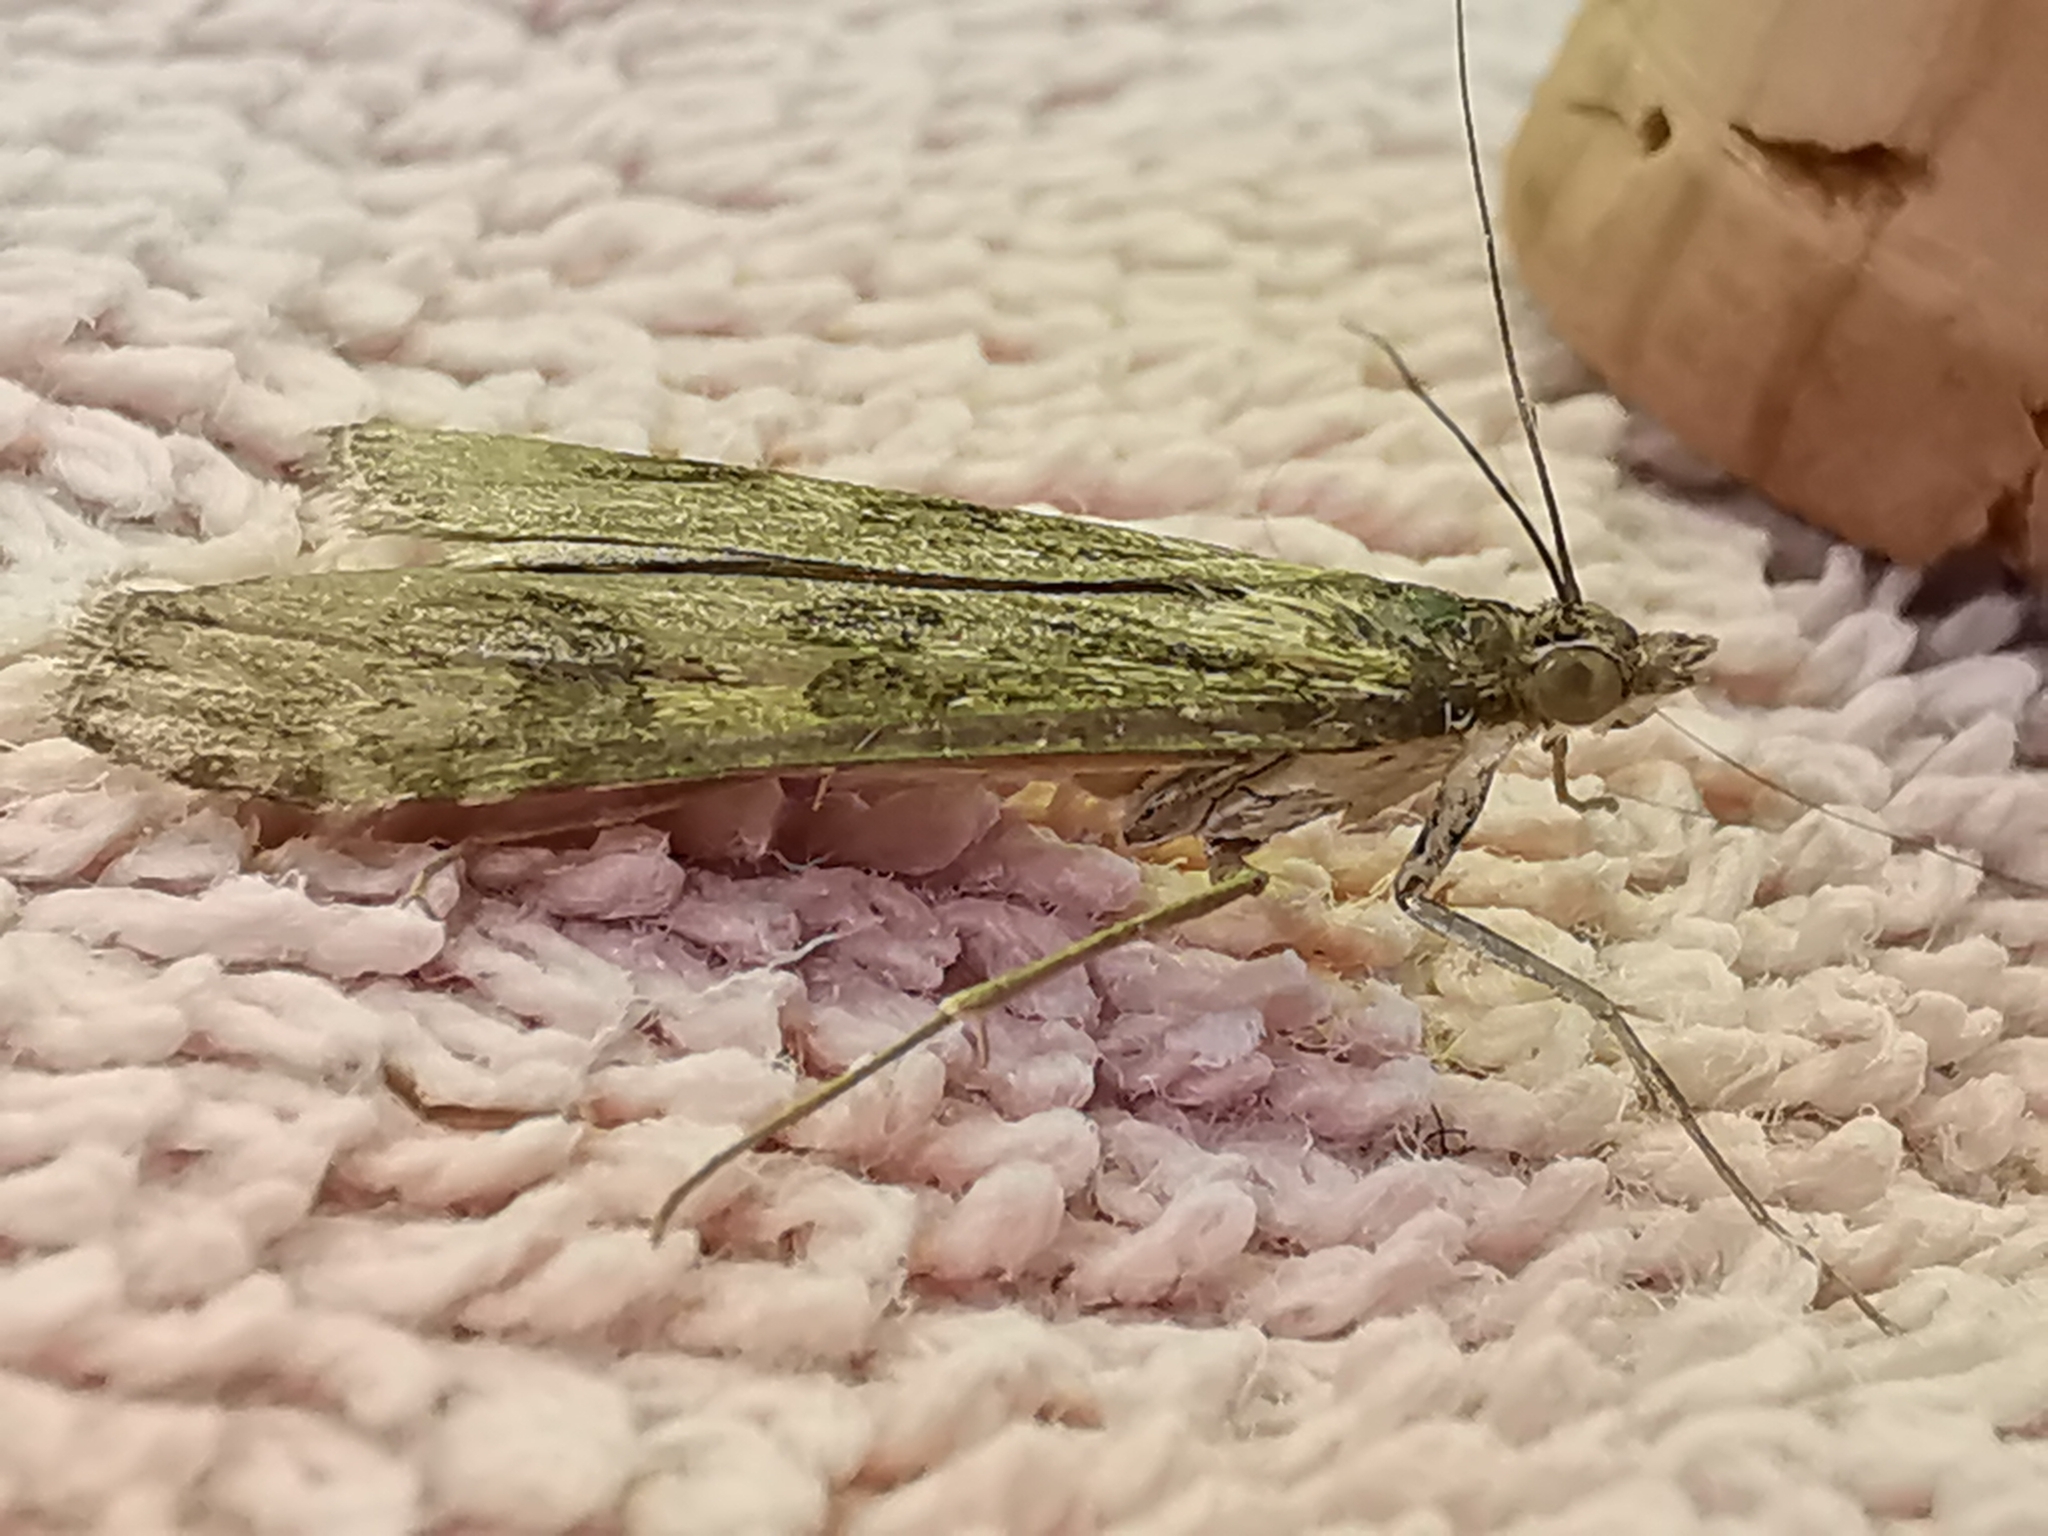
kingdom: Animalia
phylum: Arthropoda
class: Insecta
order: Lepidoptera
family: Crambidae
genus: Nomophila
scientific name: Nomophila noctuella
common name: Rush veneer
